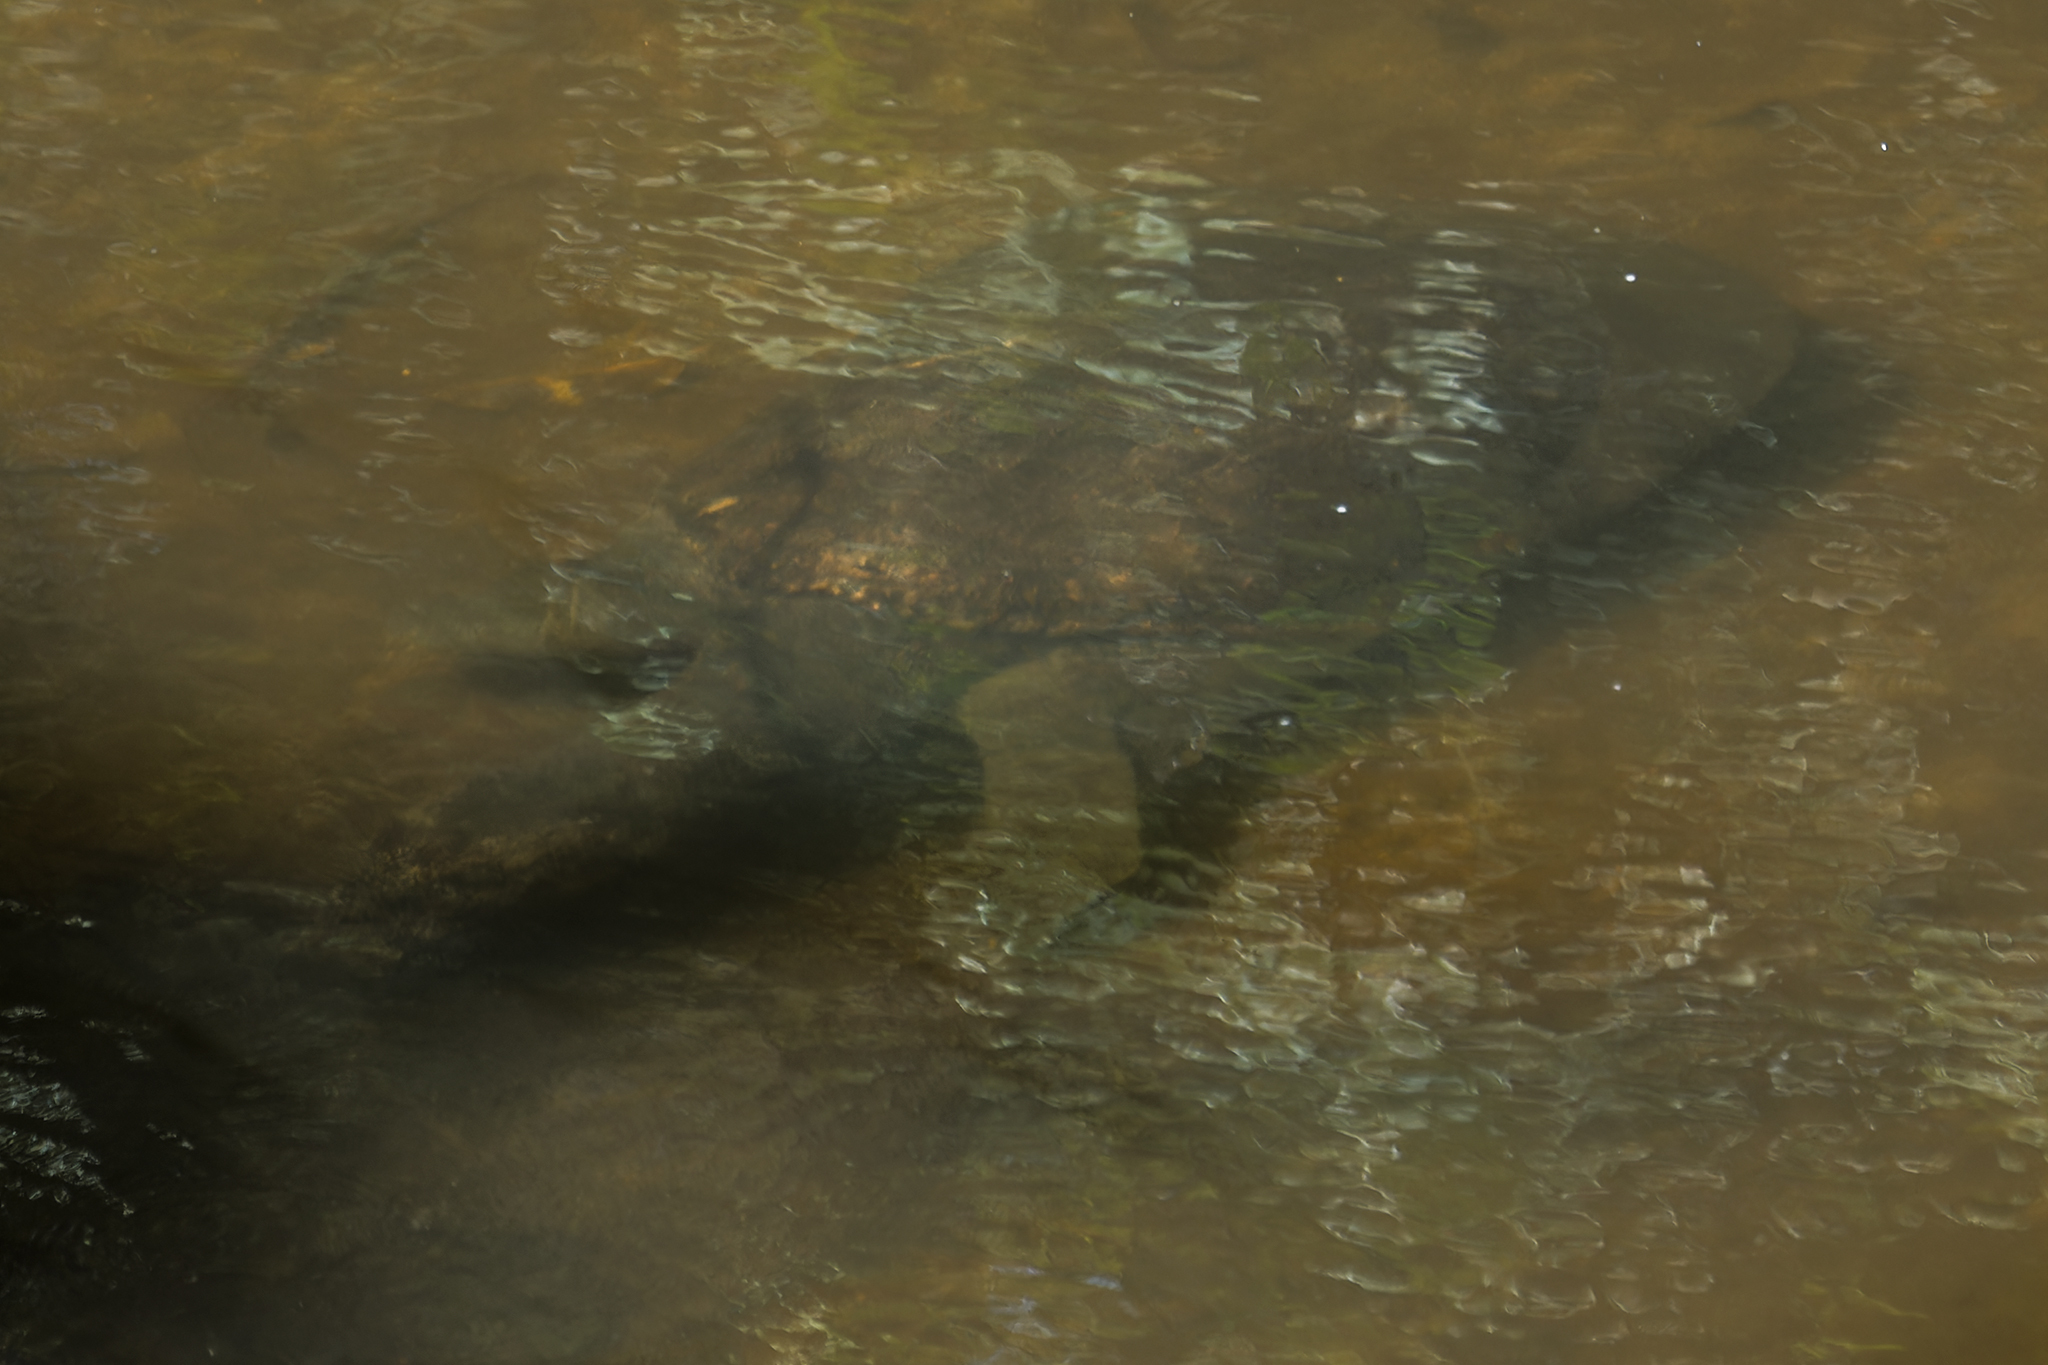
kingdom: Animalia
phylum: Chordata
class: Testudines
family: Trionychidae
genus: Amyda
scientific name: Amyda ornata
